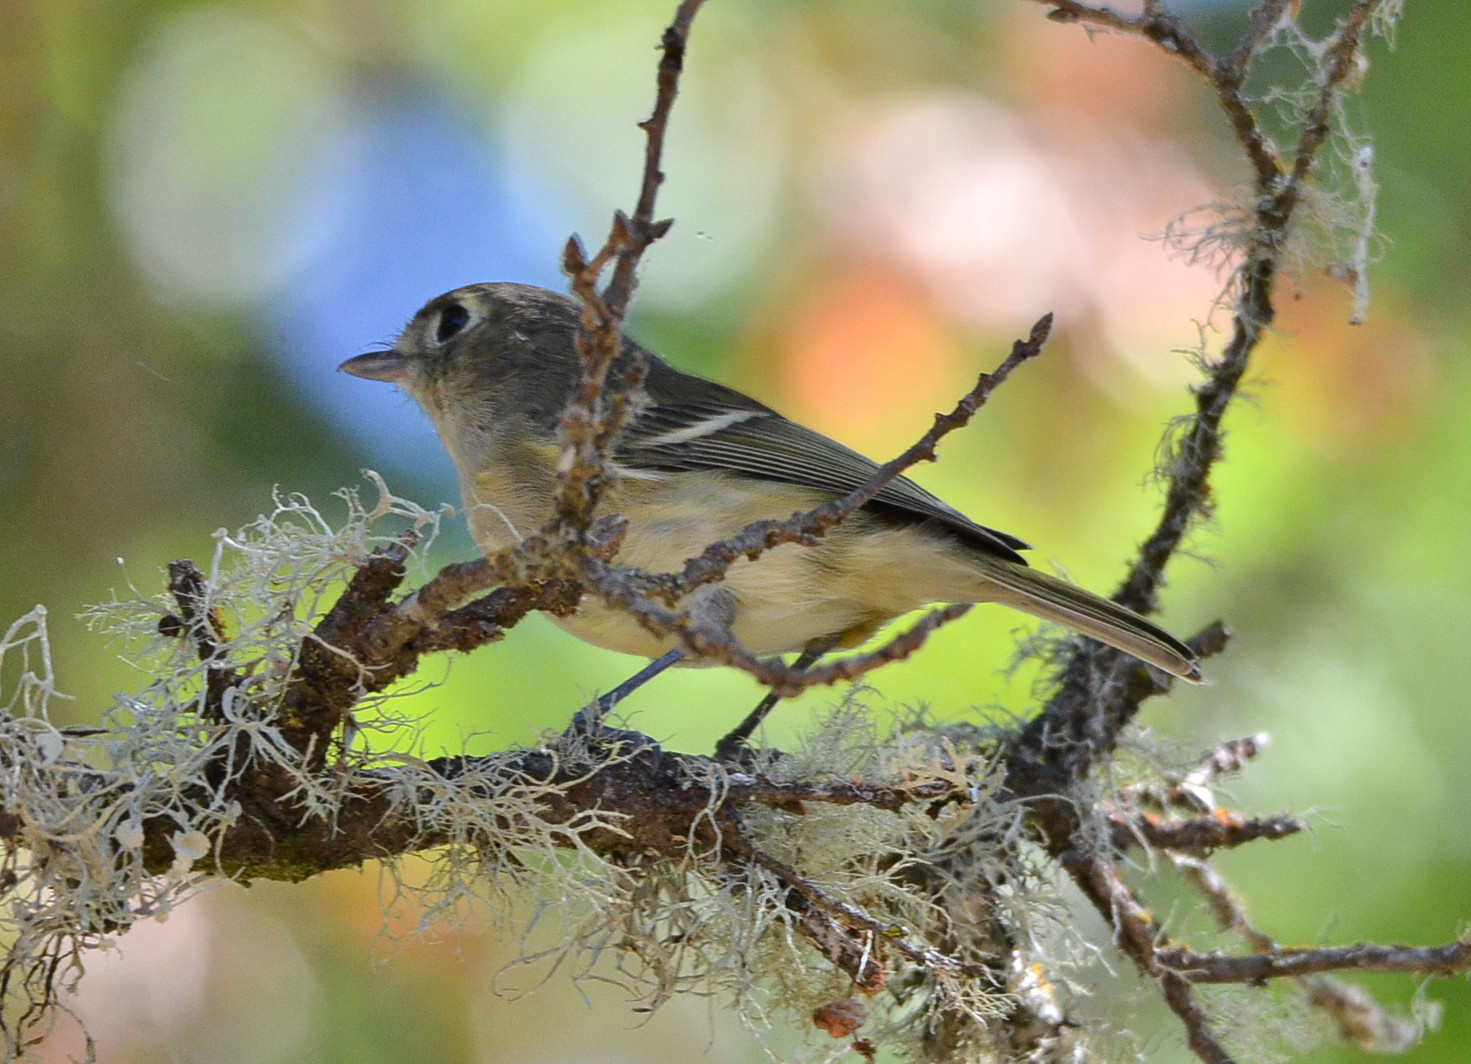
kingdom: Animalia
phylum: Chordata
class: Aves
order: Passeriformes
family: Vireonidae
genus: Vireo
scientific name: Vireo huttoni
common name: Hutton's vireo
